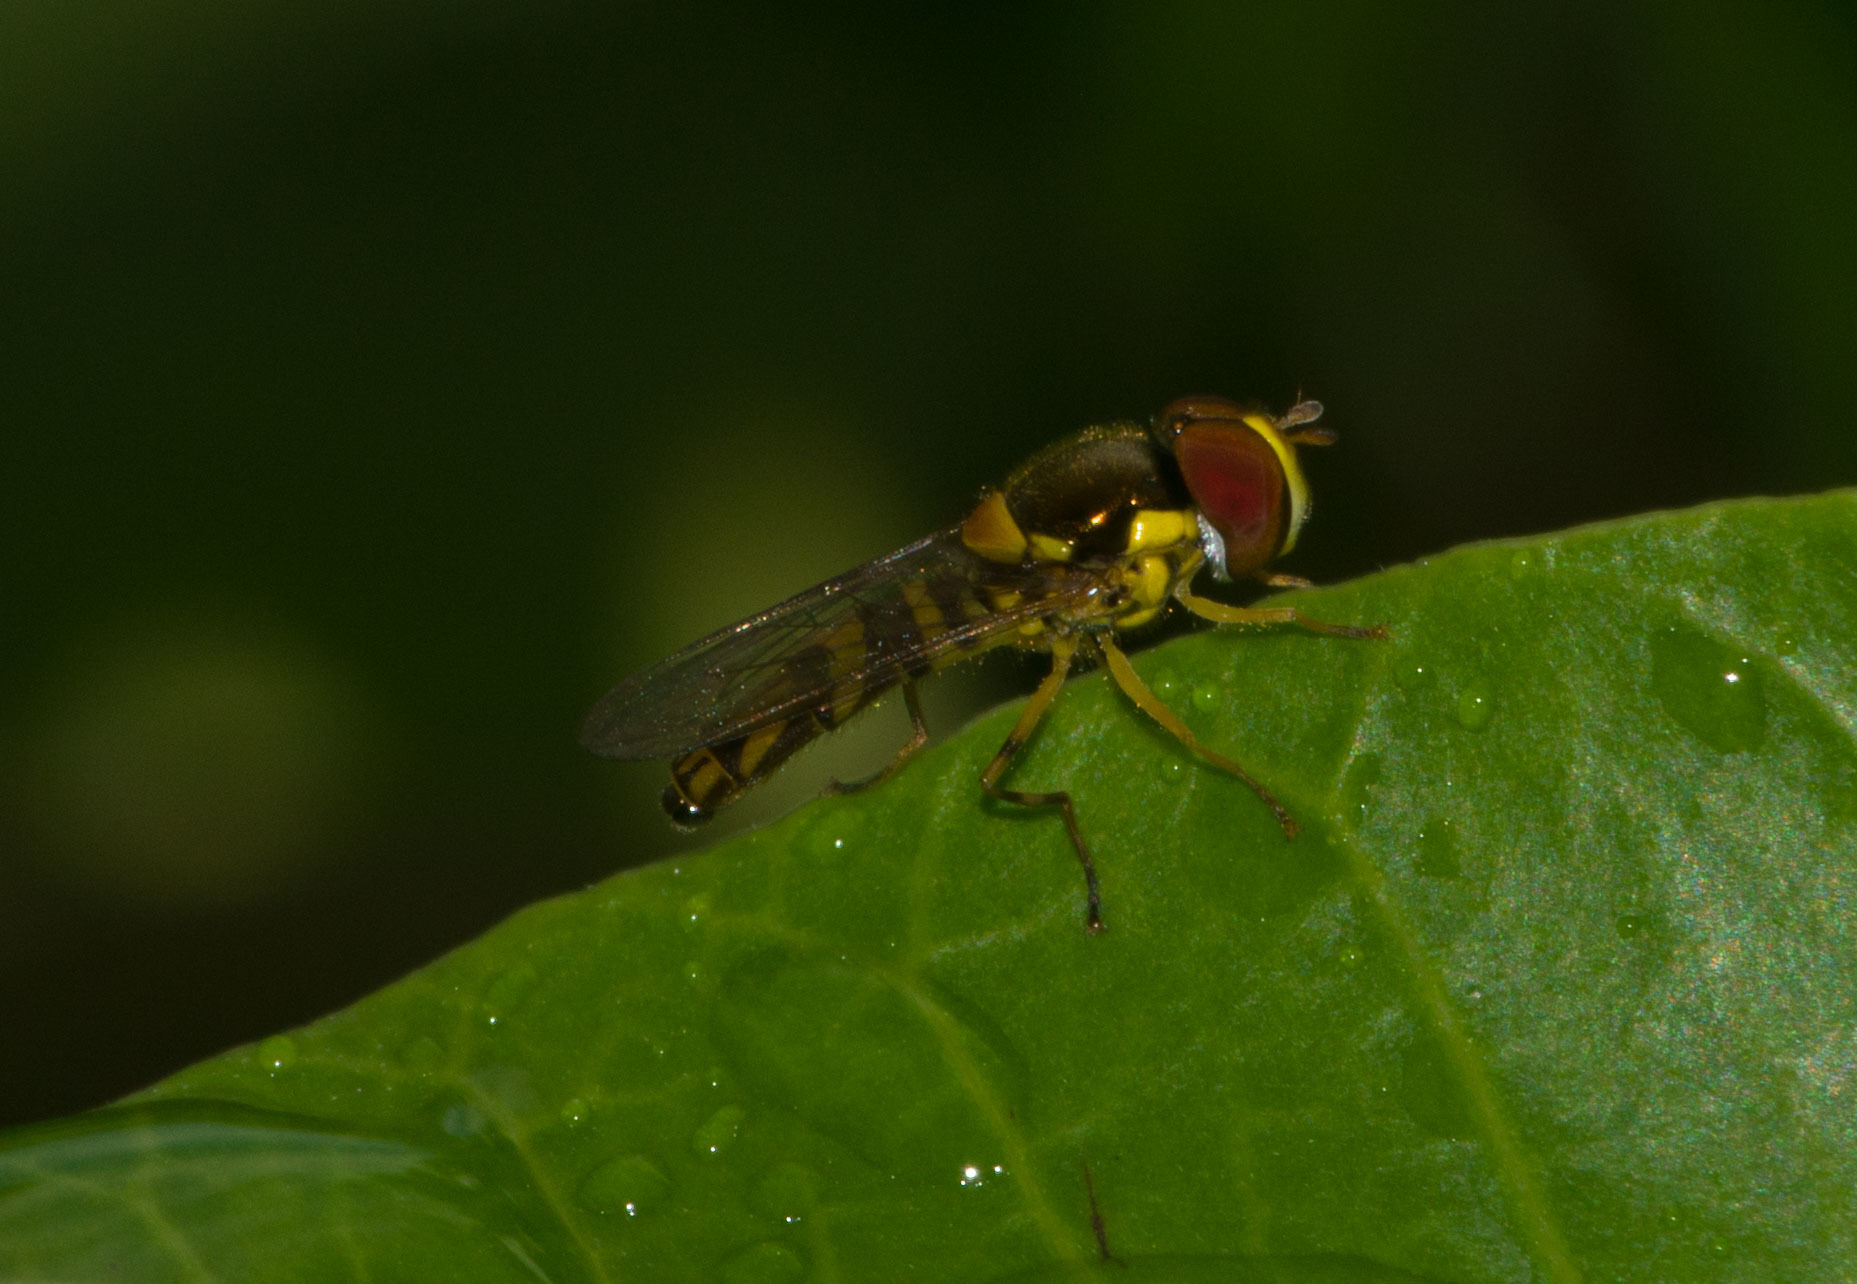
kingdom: Animalia
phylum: Arthropoda
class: Insecta
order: Diptera
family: Syrphidae
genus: Allograpta
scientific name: Allograpta obliqua
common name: Common oblique syrphid
